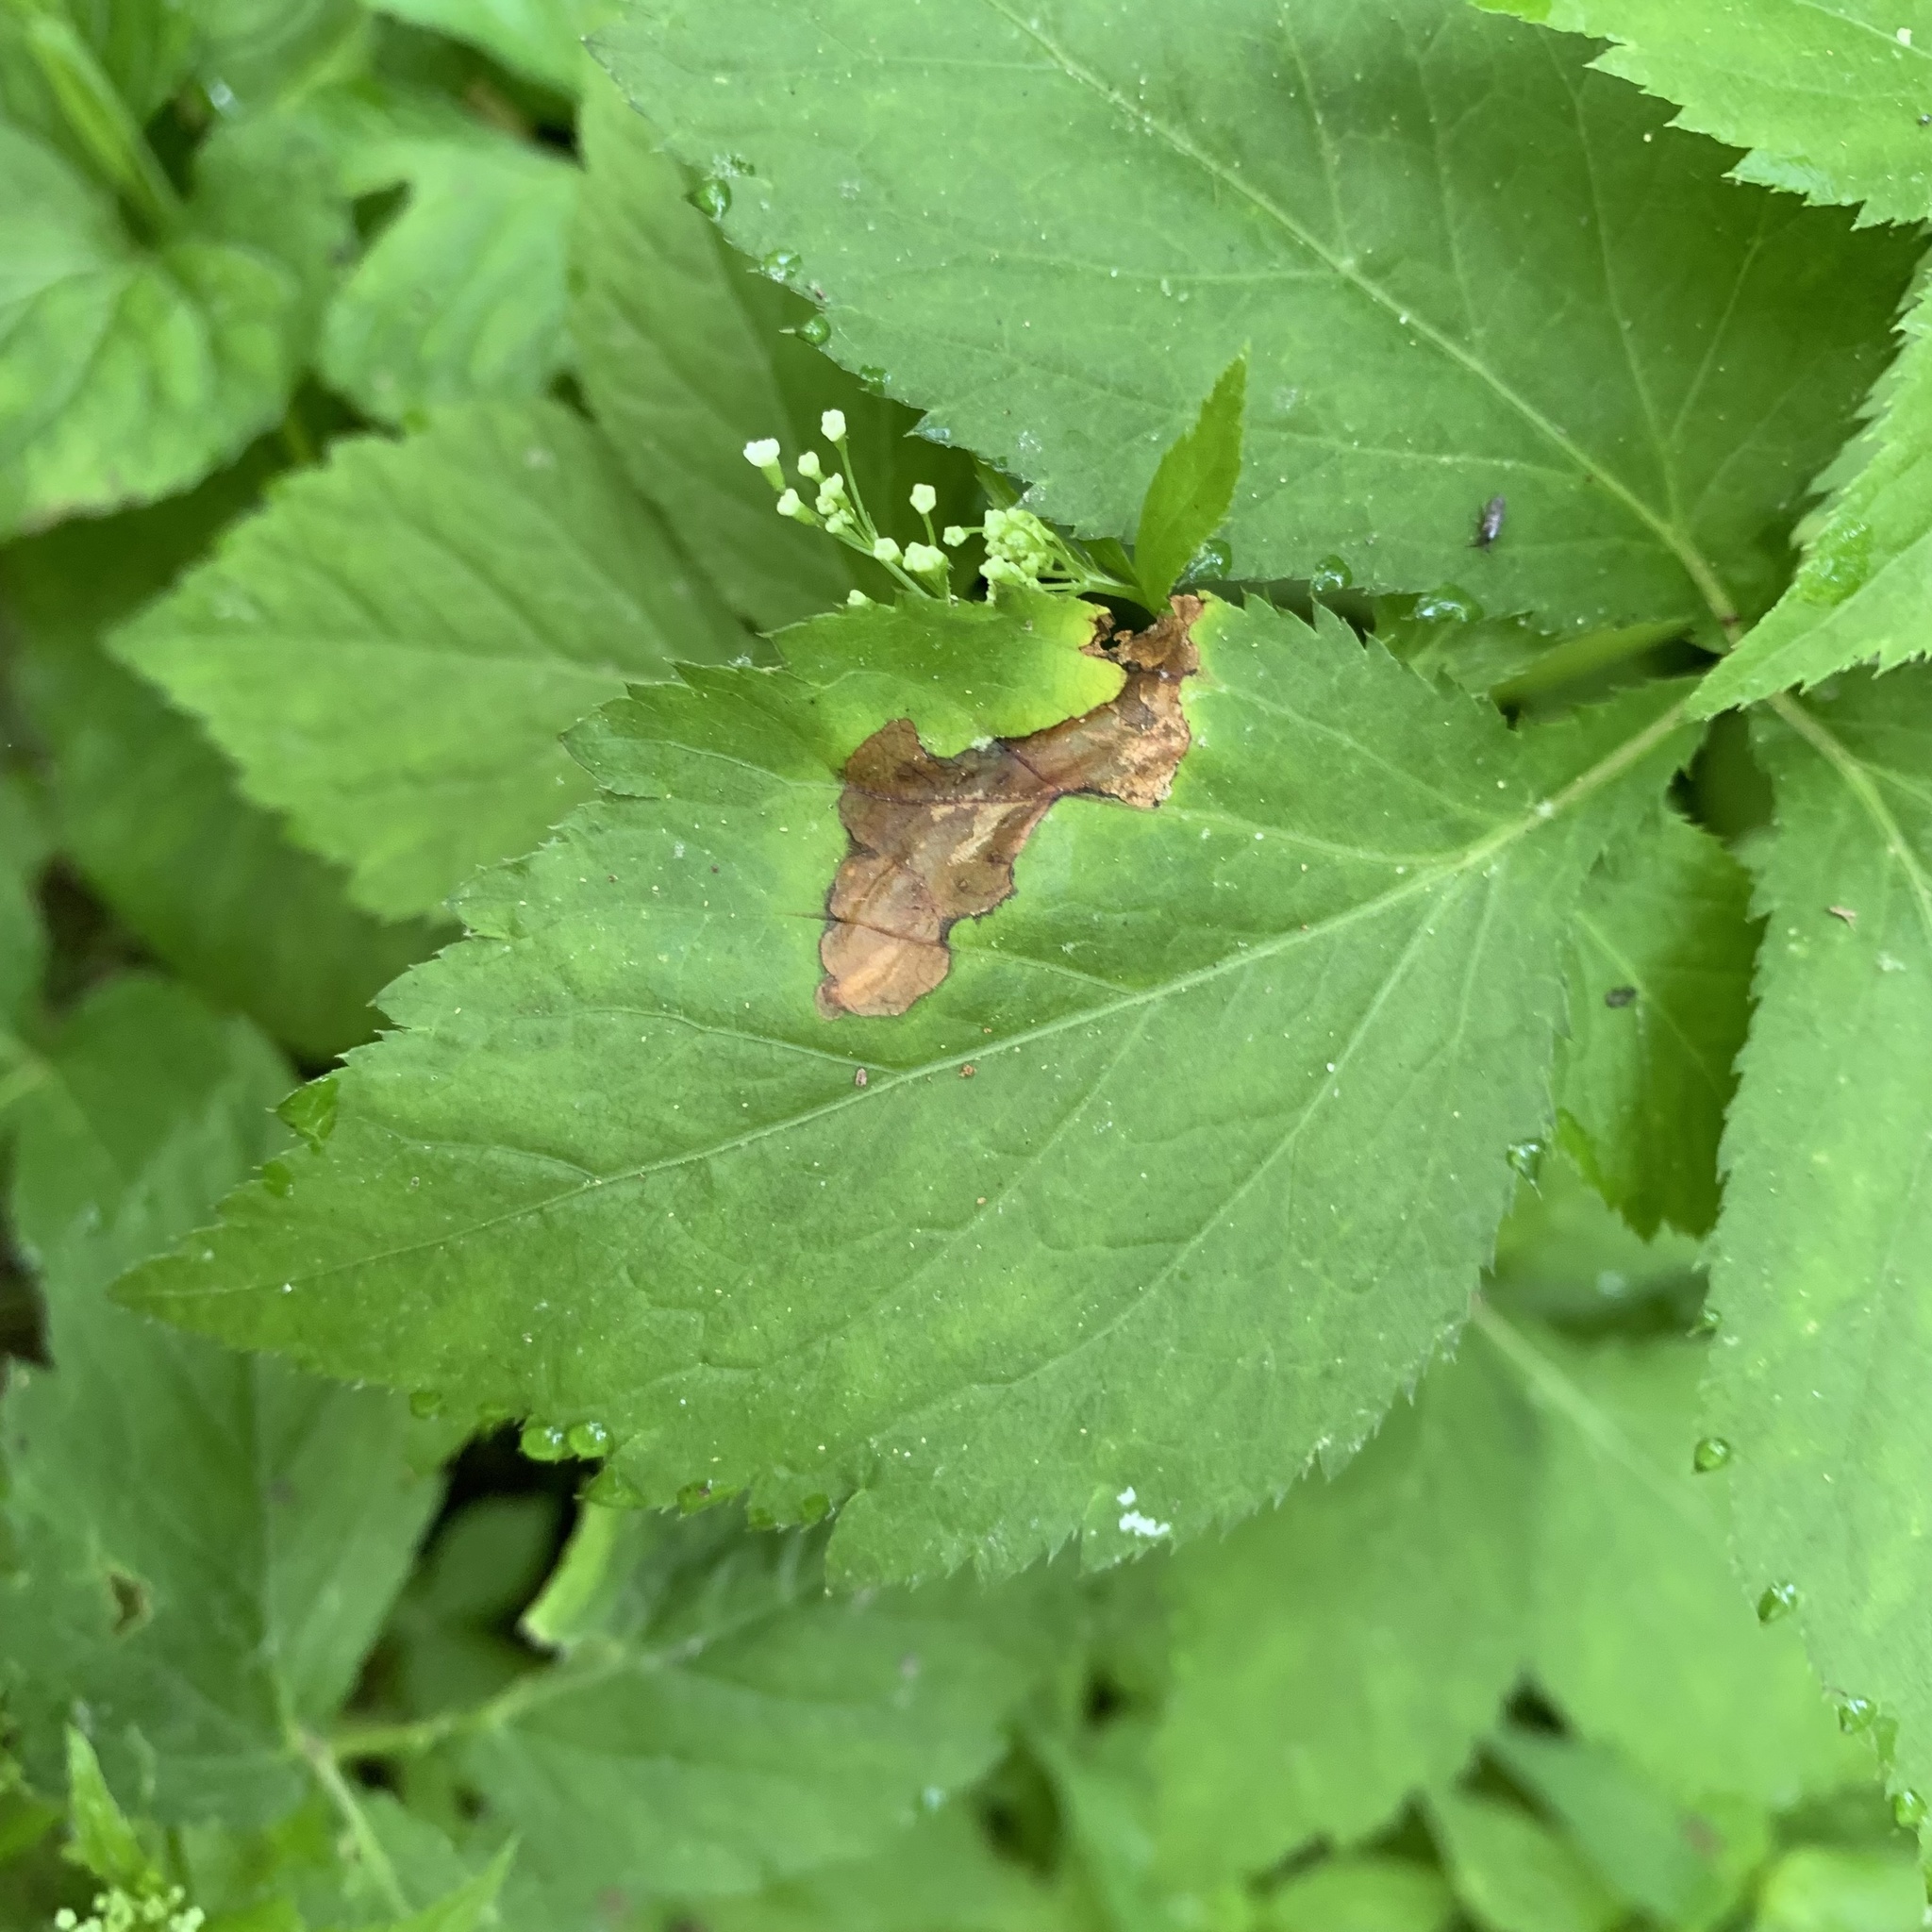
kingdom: Animalia
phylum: Arthropoda
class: Insecta
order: Diptera
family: Tephritidae
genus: Euleia
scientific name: Euleia fratria
